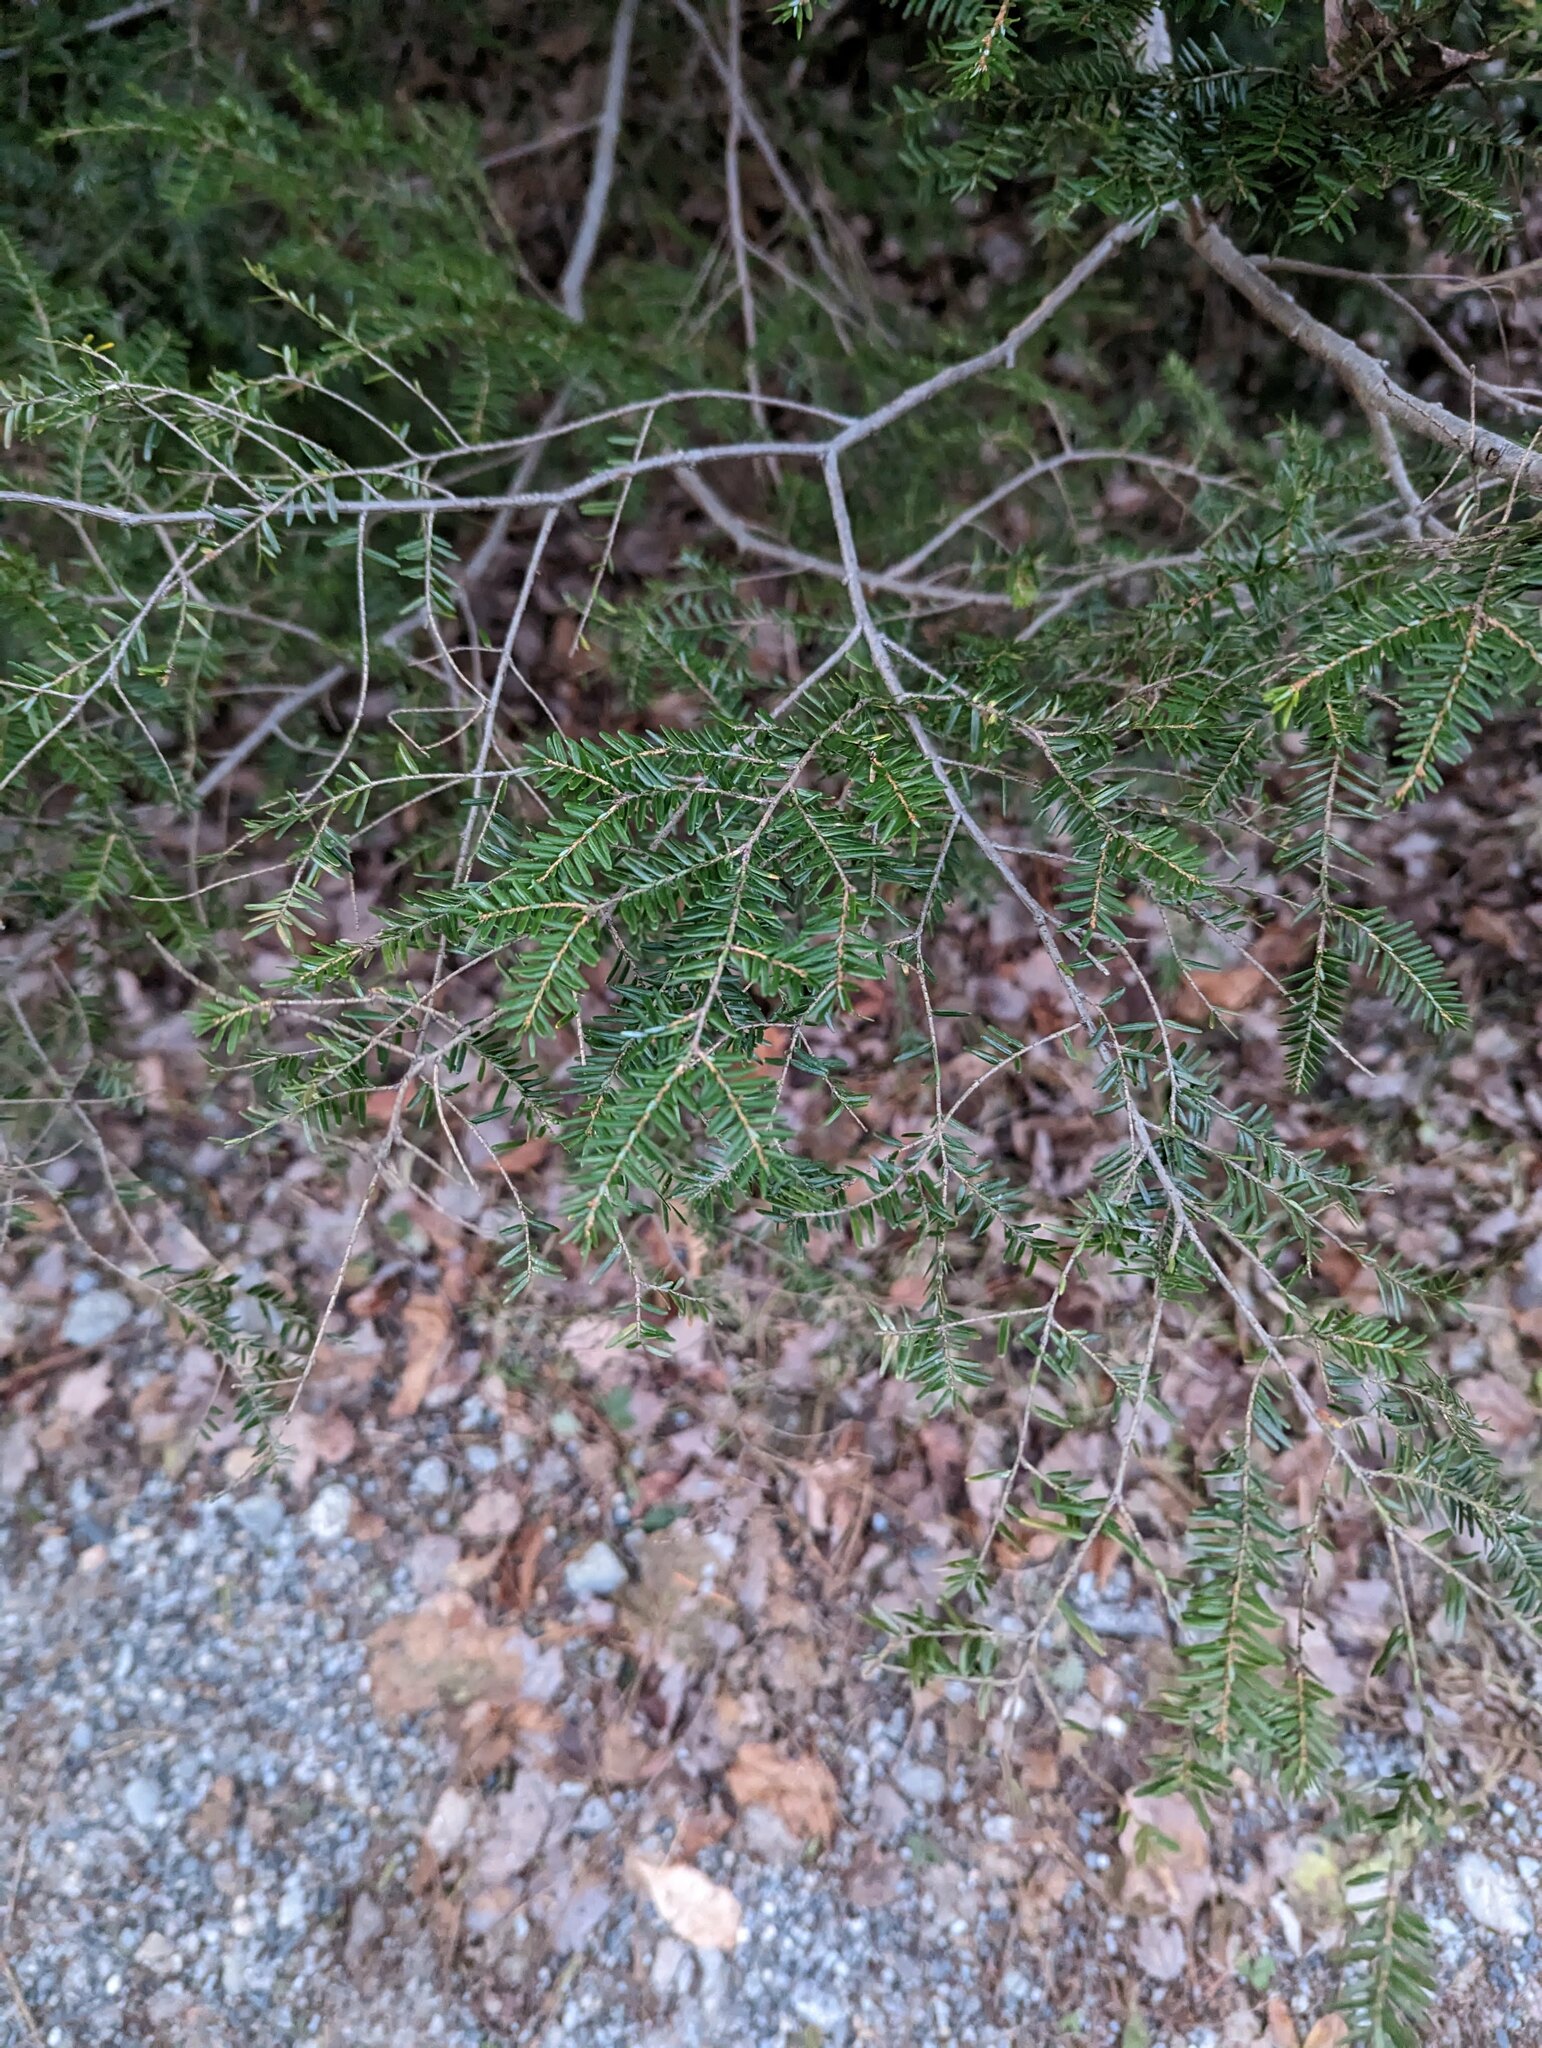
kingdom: Plantae
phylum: Tracheophyta
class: Pinopsida
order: Pinales
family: Pinaceae
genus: Tsuga
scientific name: Tsuga canadensis
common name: Eastern hemlock
